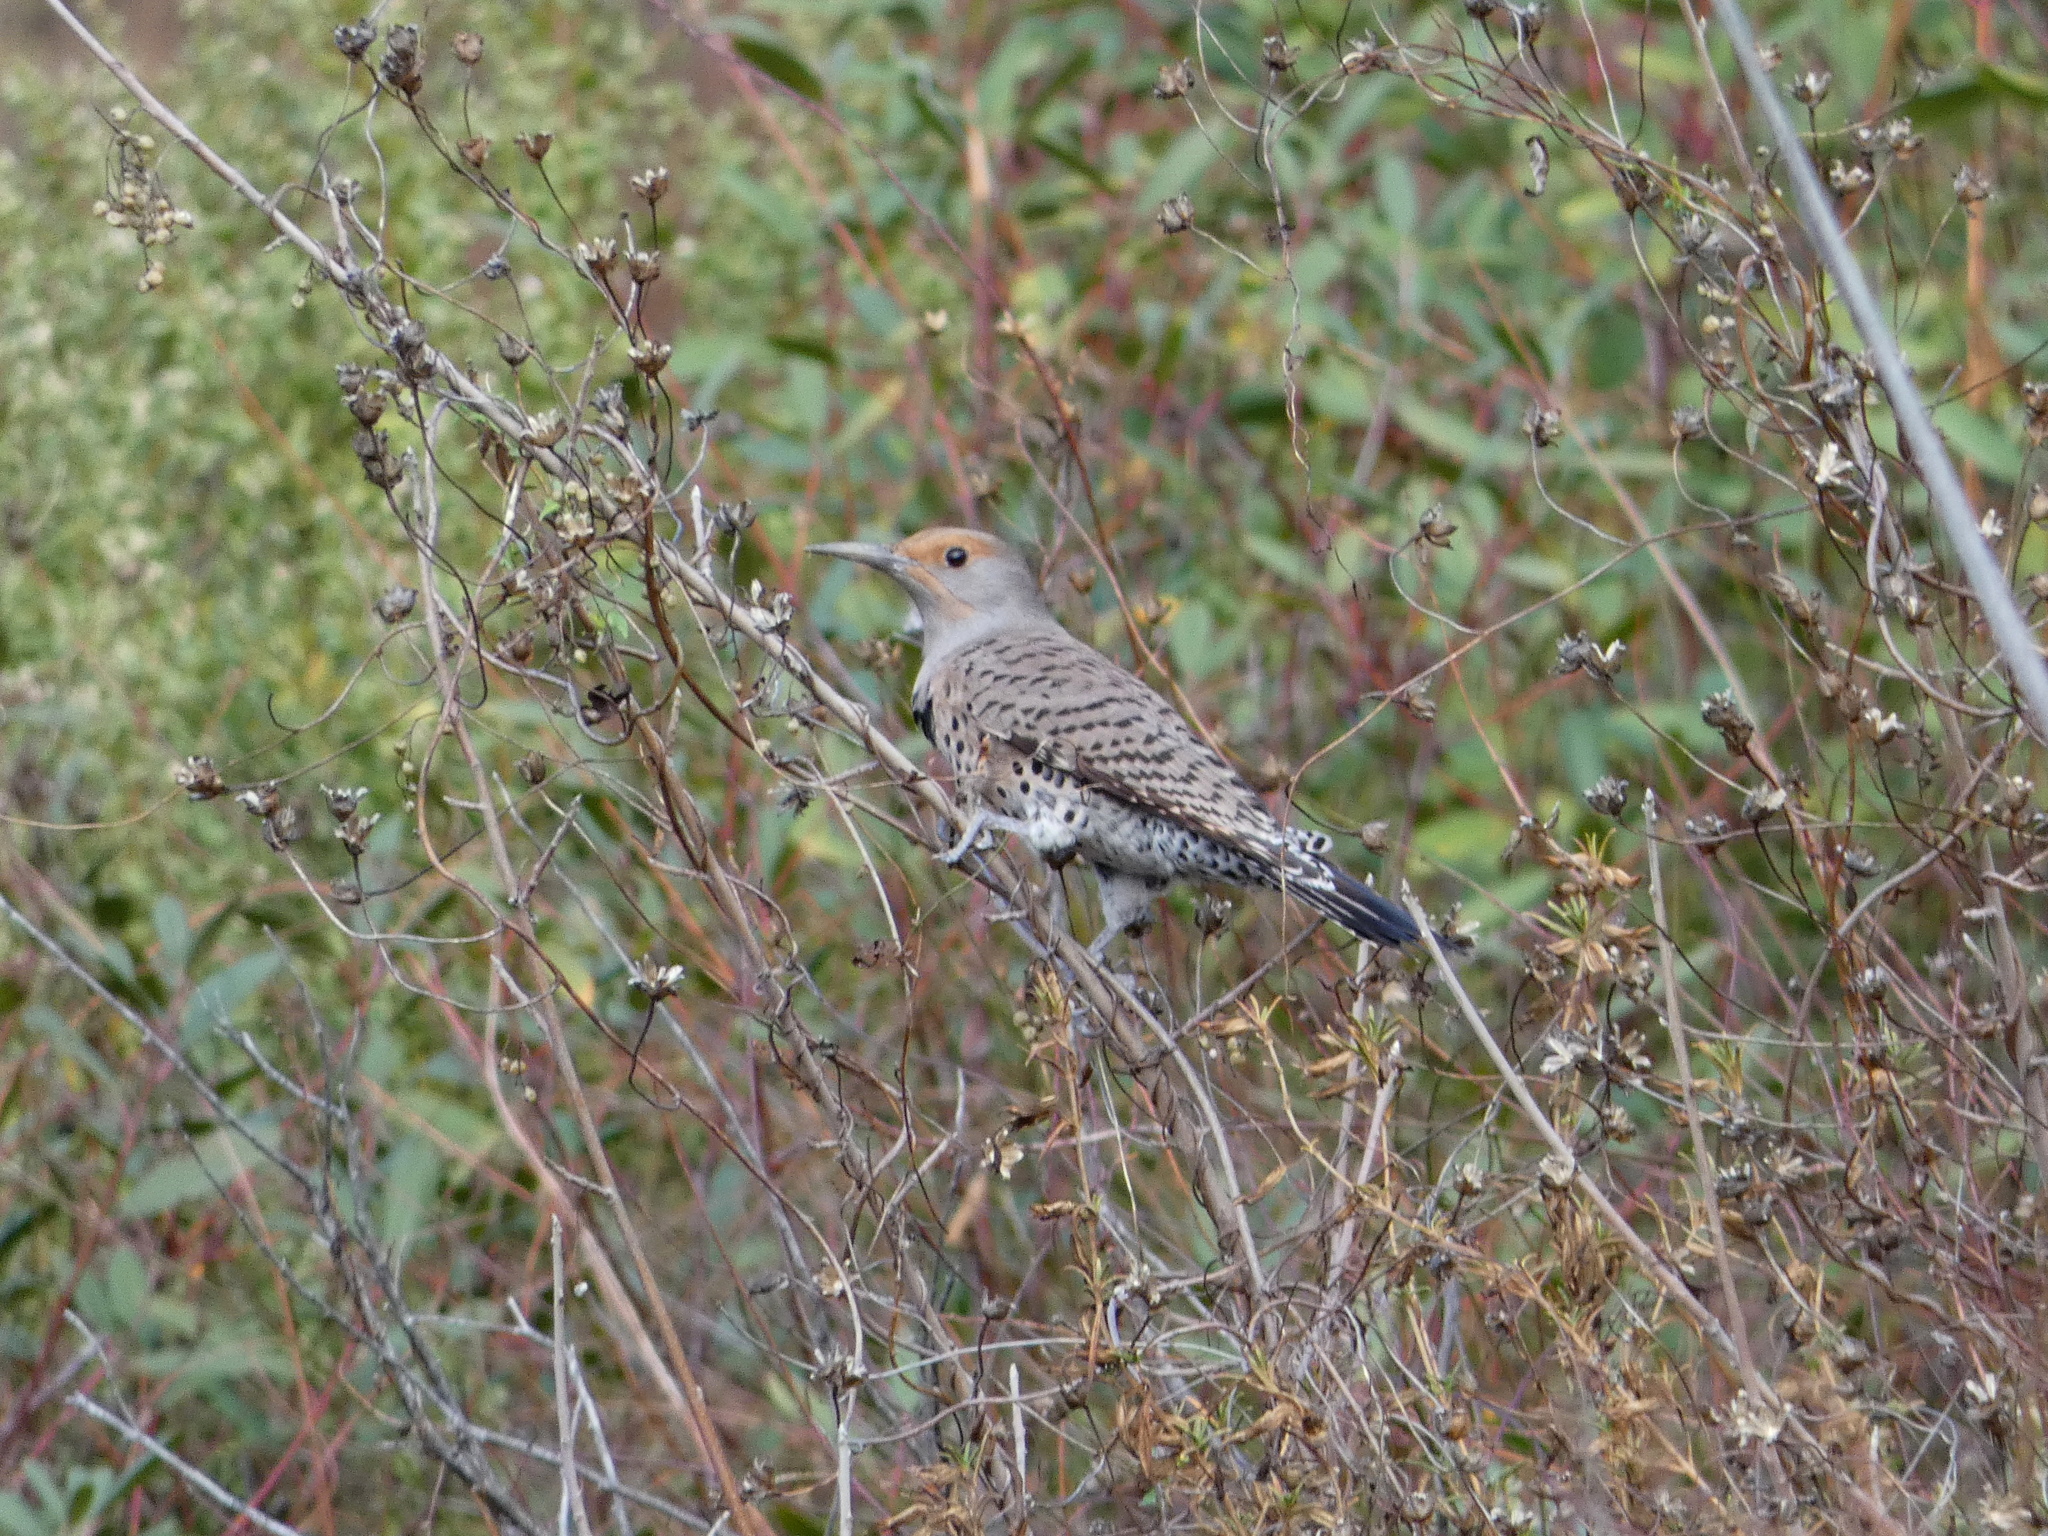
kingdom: Animalia
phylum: Chordata
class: Aves
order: Piciformes
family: Picidae
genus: Colaptes
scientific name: Colaptes auratus
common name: Northern flicker
